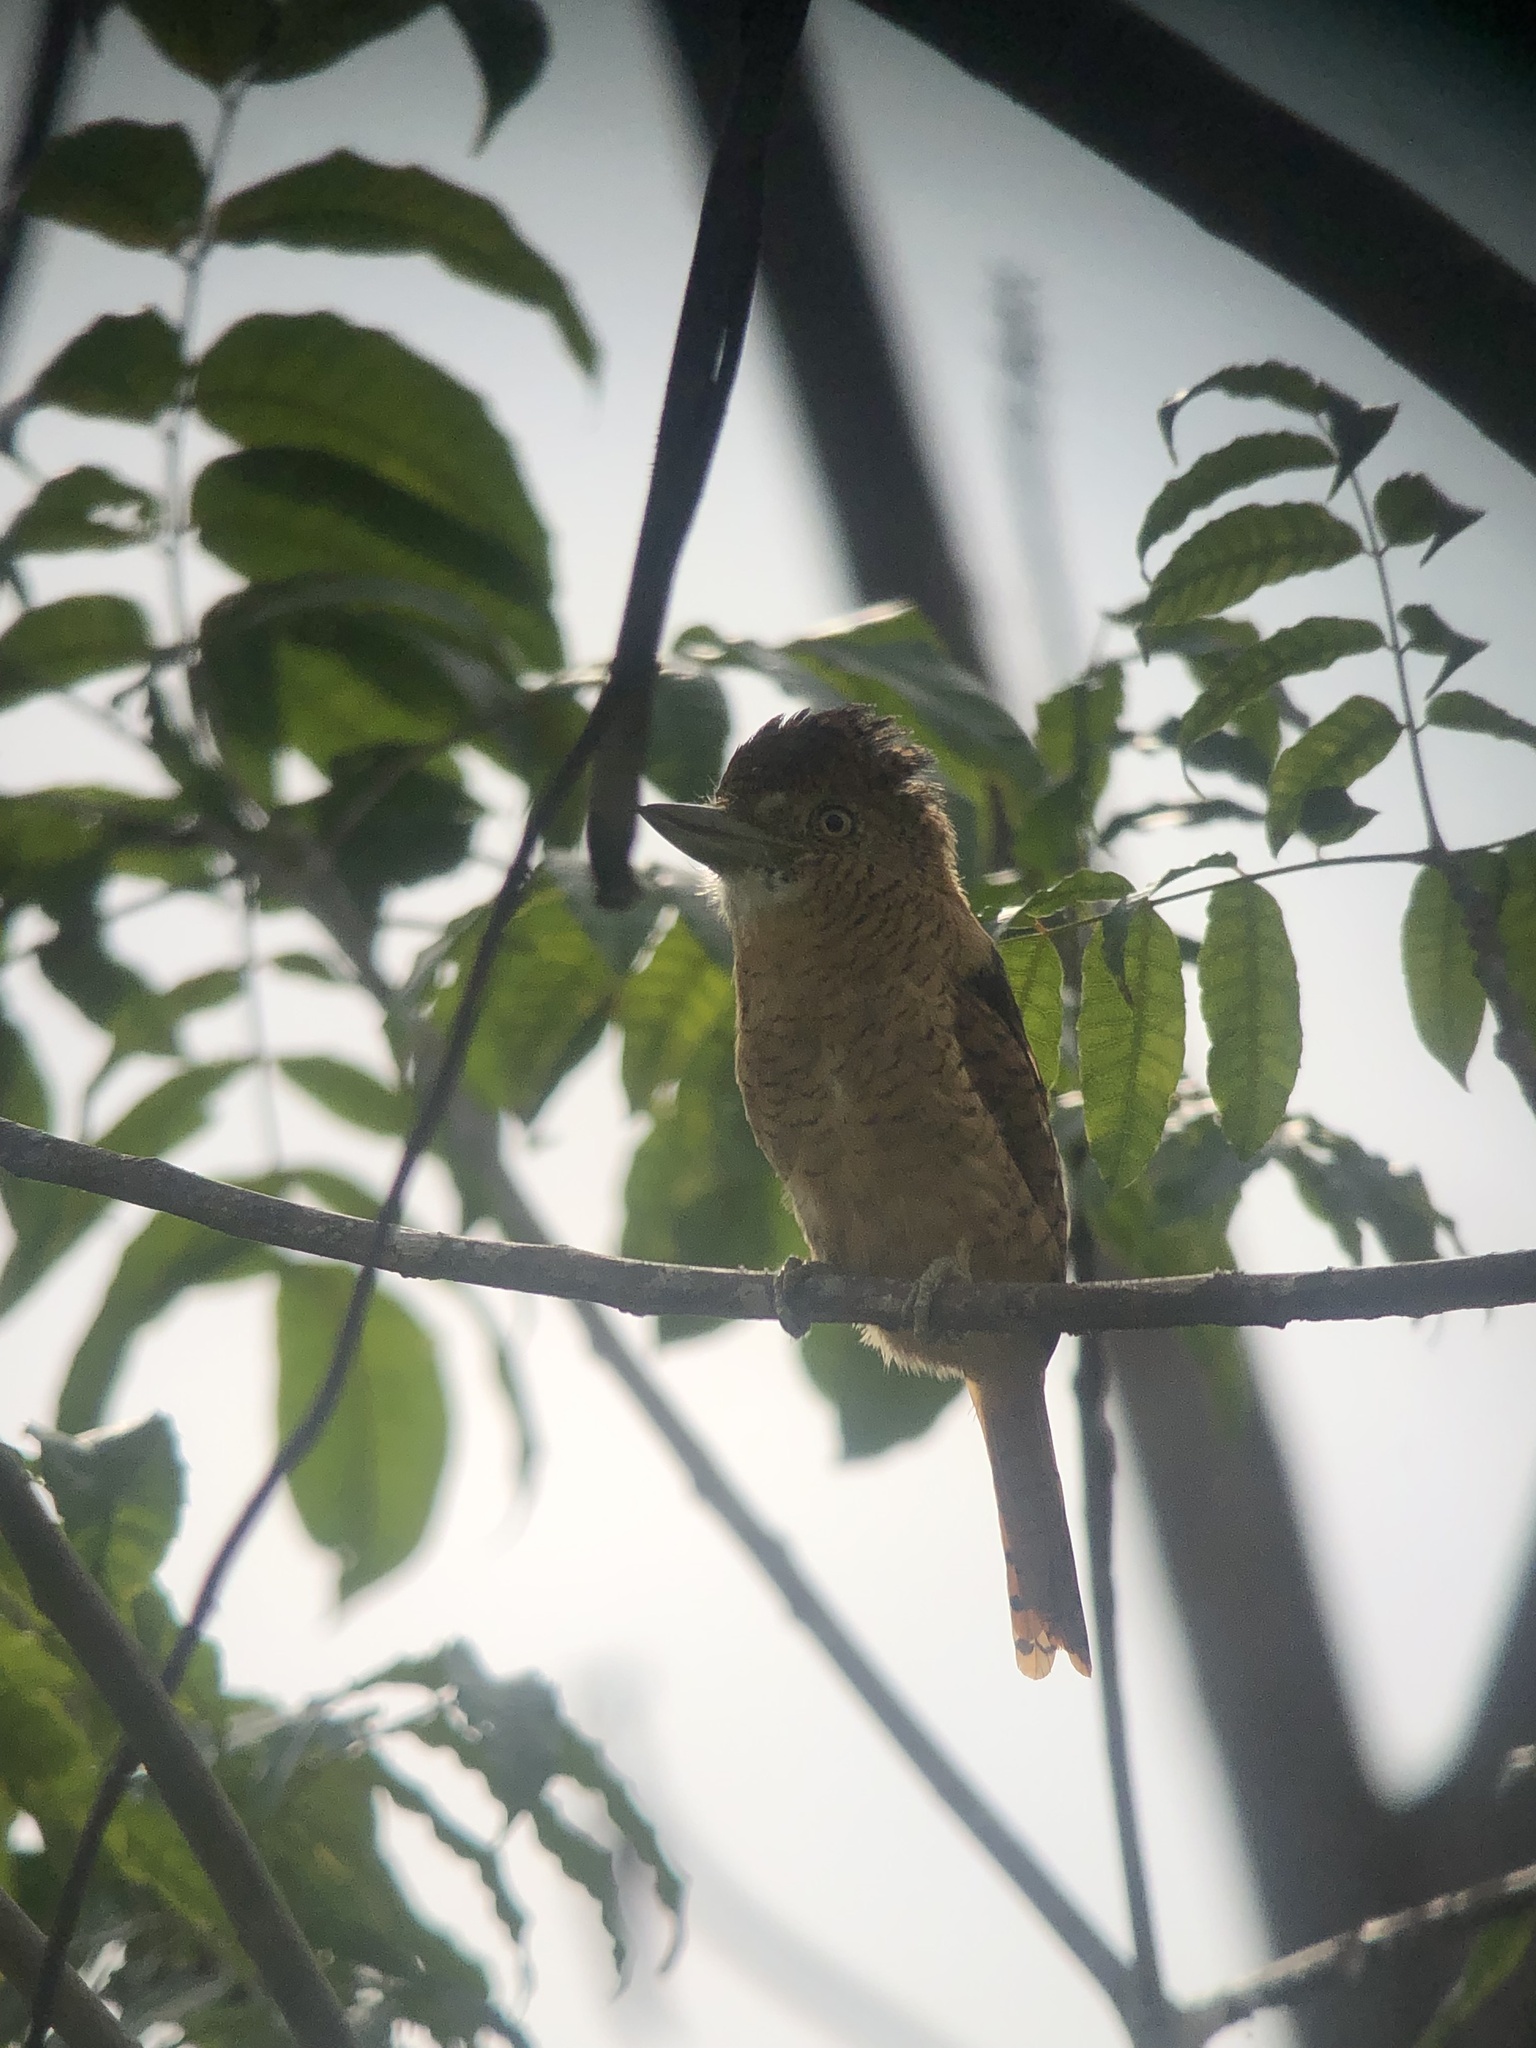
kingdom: Animalia
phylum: Chordata
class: Aves
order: Piciformes
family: Bucconidae
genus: Nystalus
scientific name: Nystalus radiatus
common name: Barred puffbird
